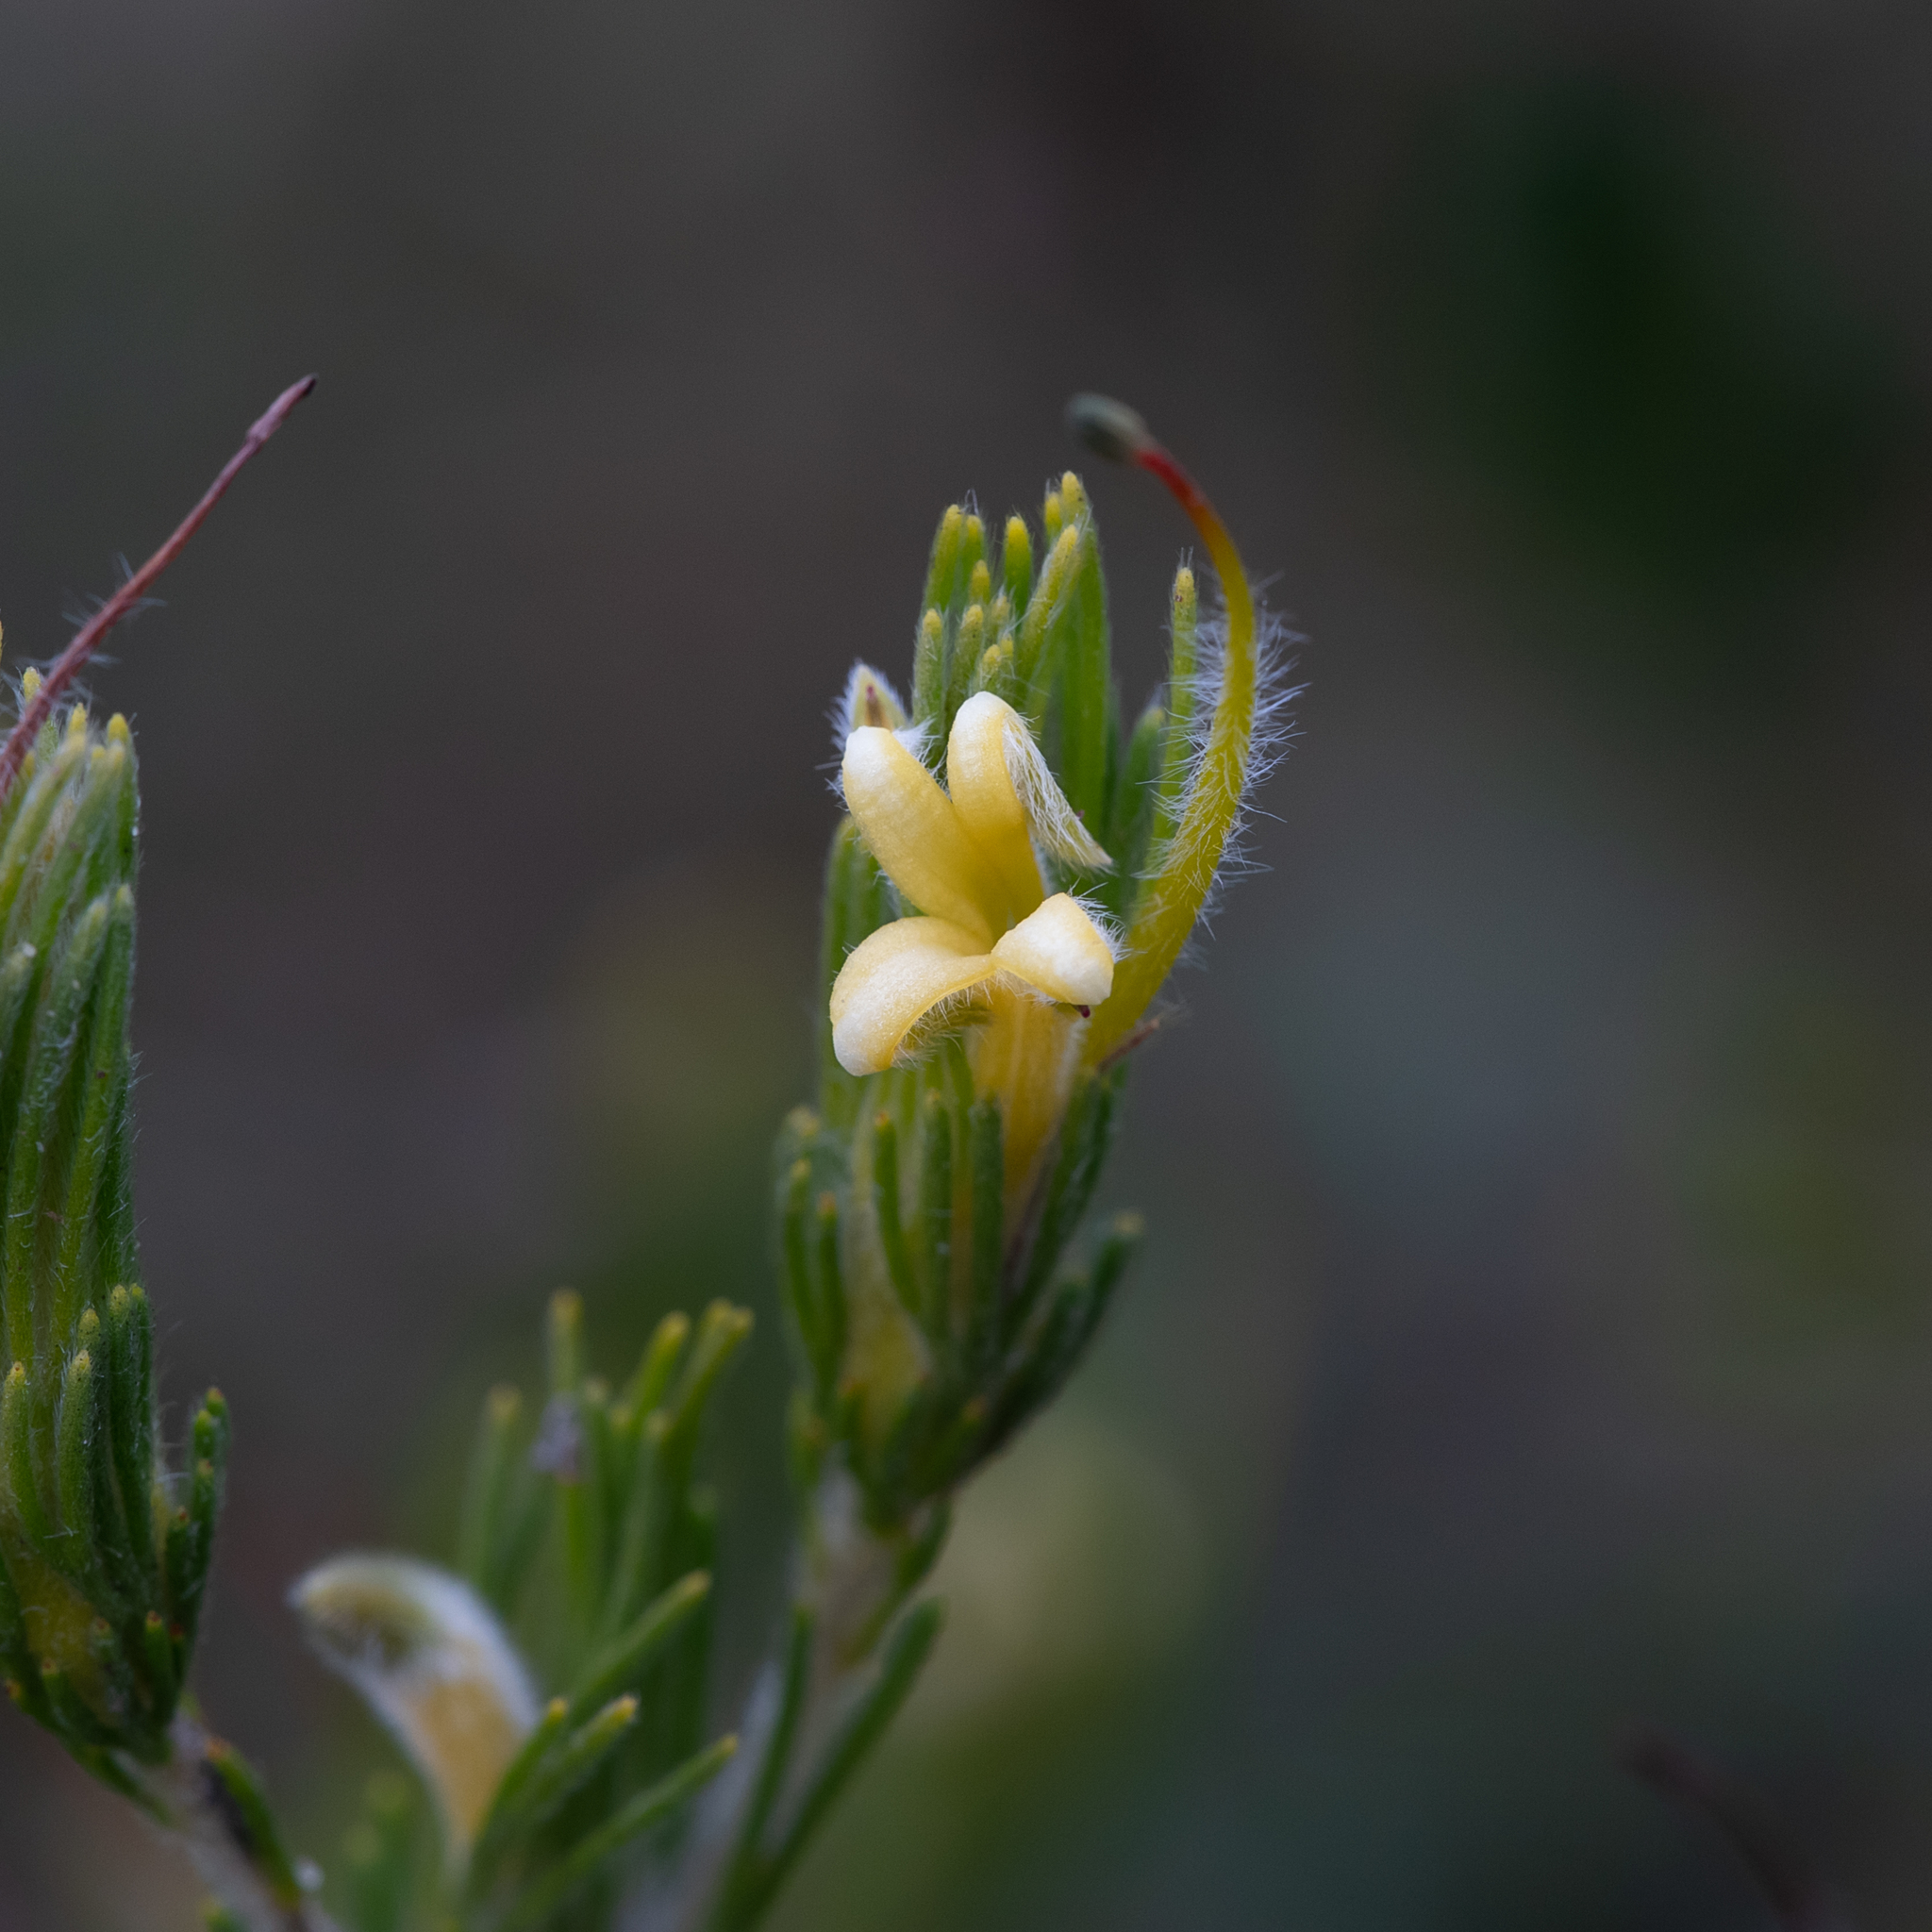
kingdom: Plantae
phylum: Tracheophyta
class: Magnoliopsida
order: Proteales
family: Proteaceae
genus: Adenanthos
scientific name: Adenanthos terminalis
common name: Yellow gland-flower
